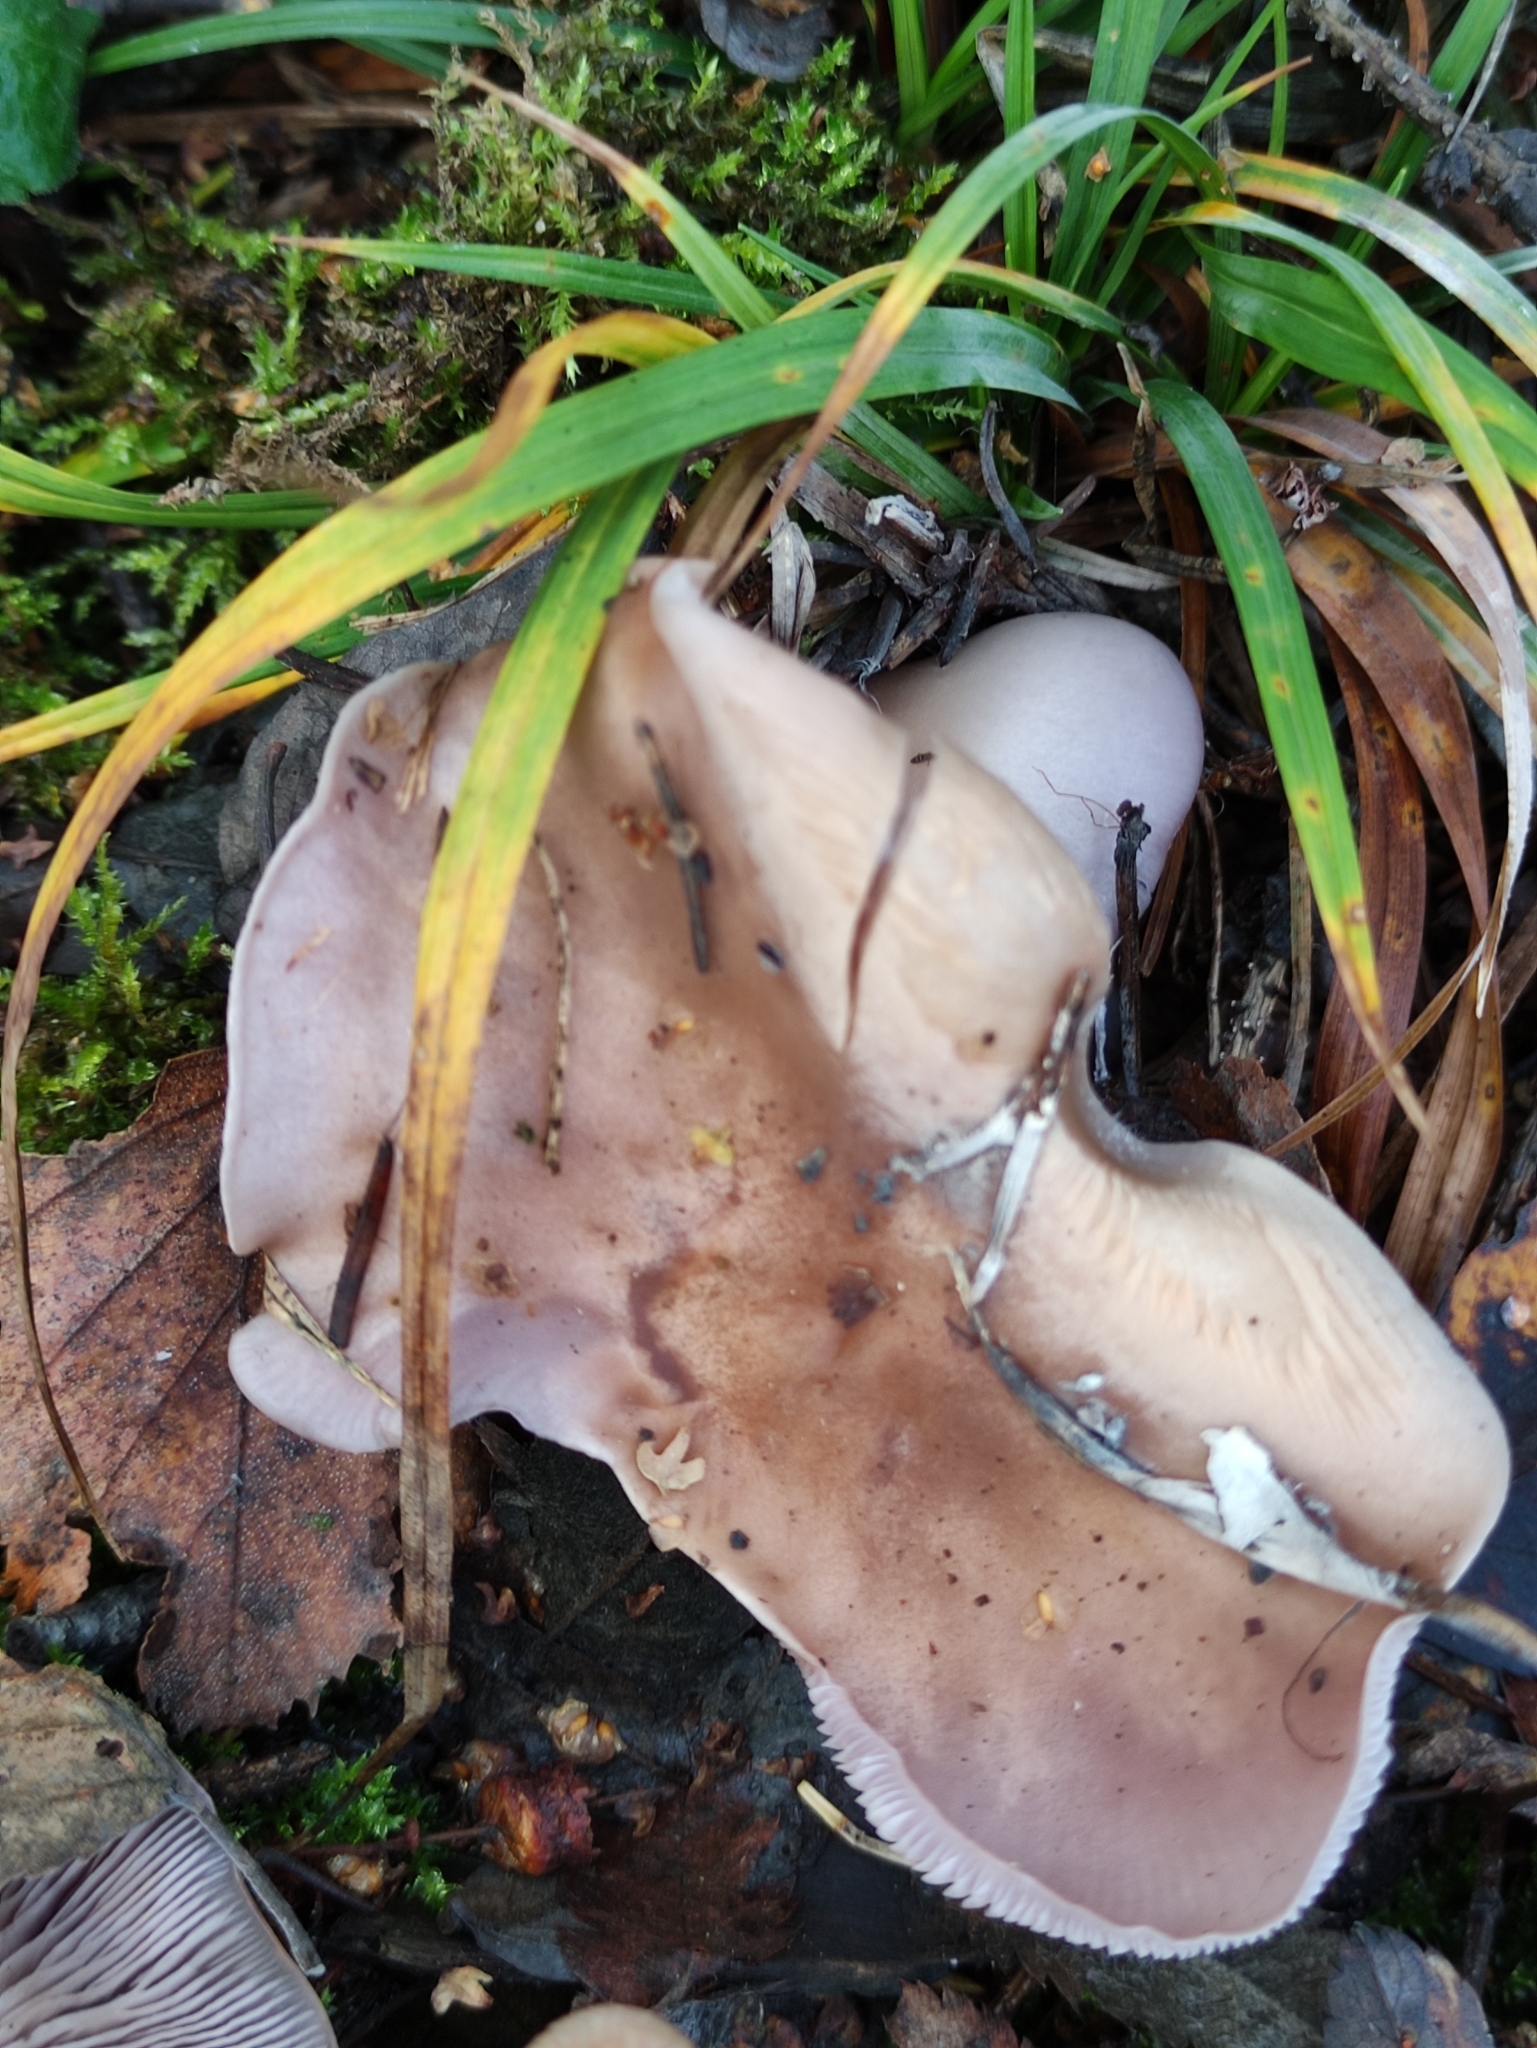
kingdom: Fungi
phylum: Basidiomycota
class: Agaricomycetes
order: Agaricales
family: Tricholomataceae
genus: Collybia
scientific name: Collybia
